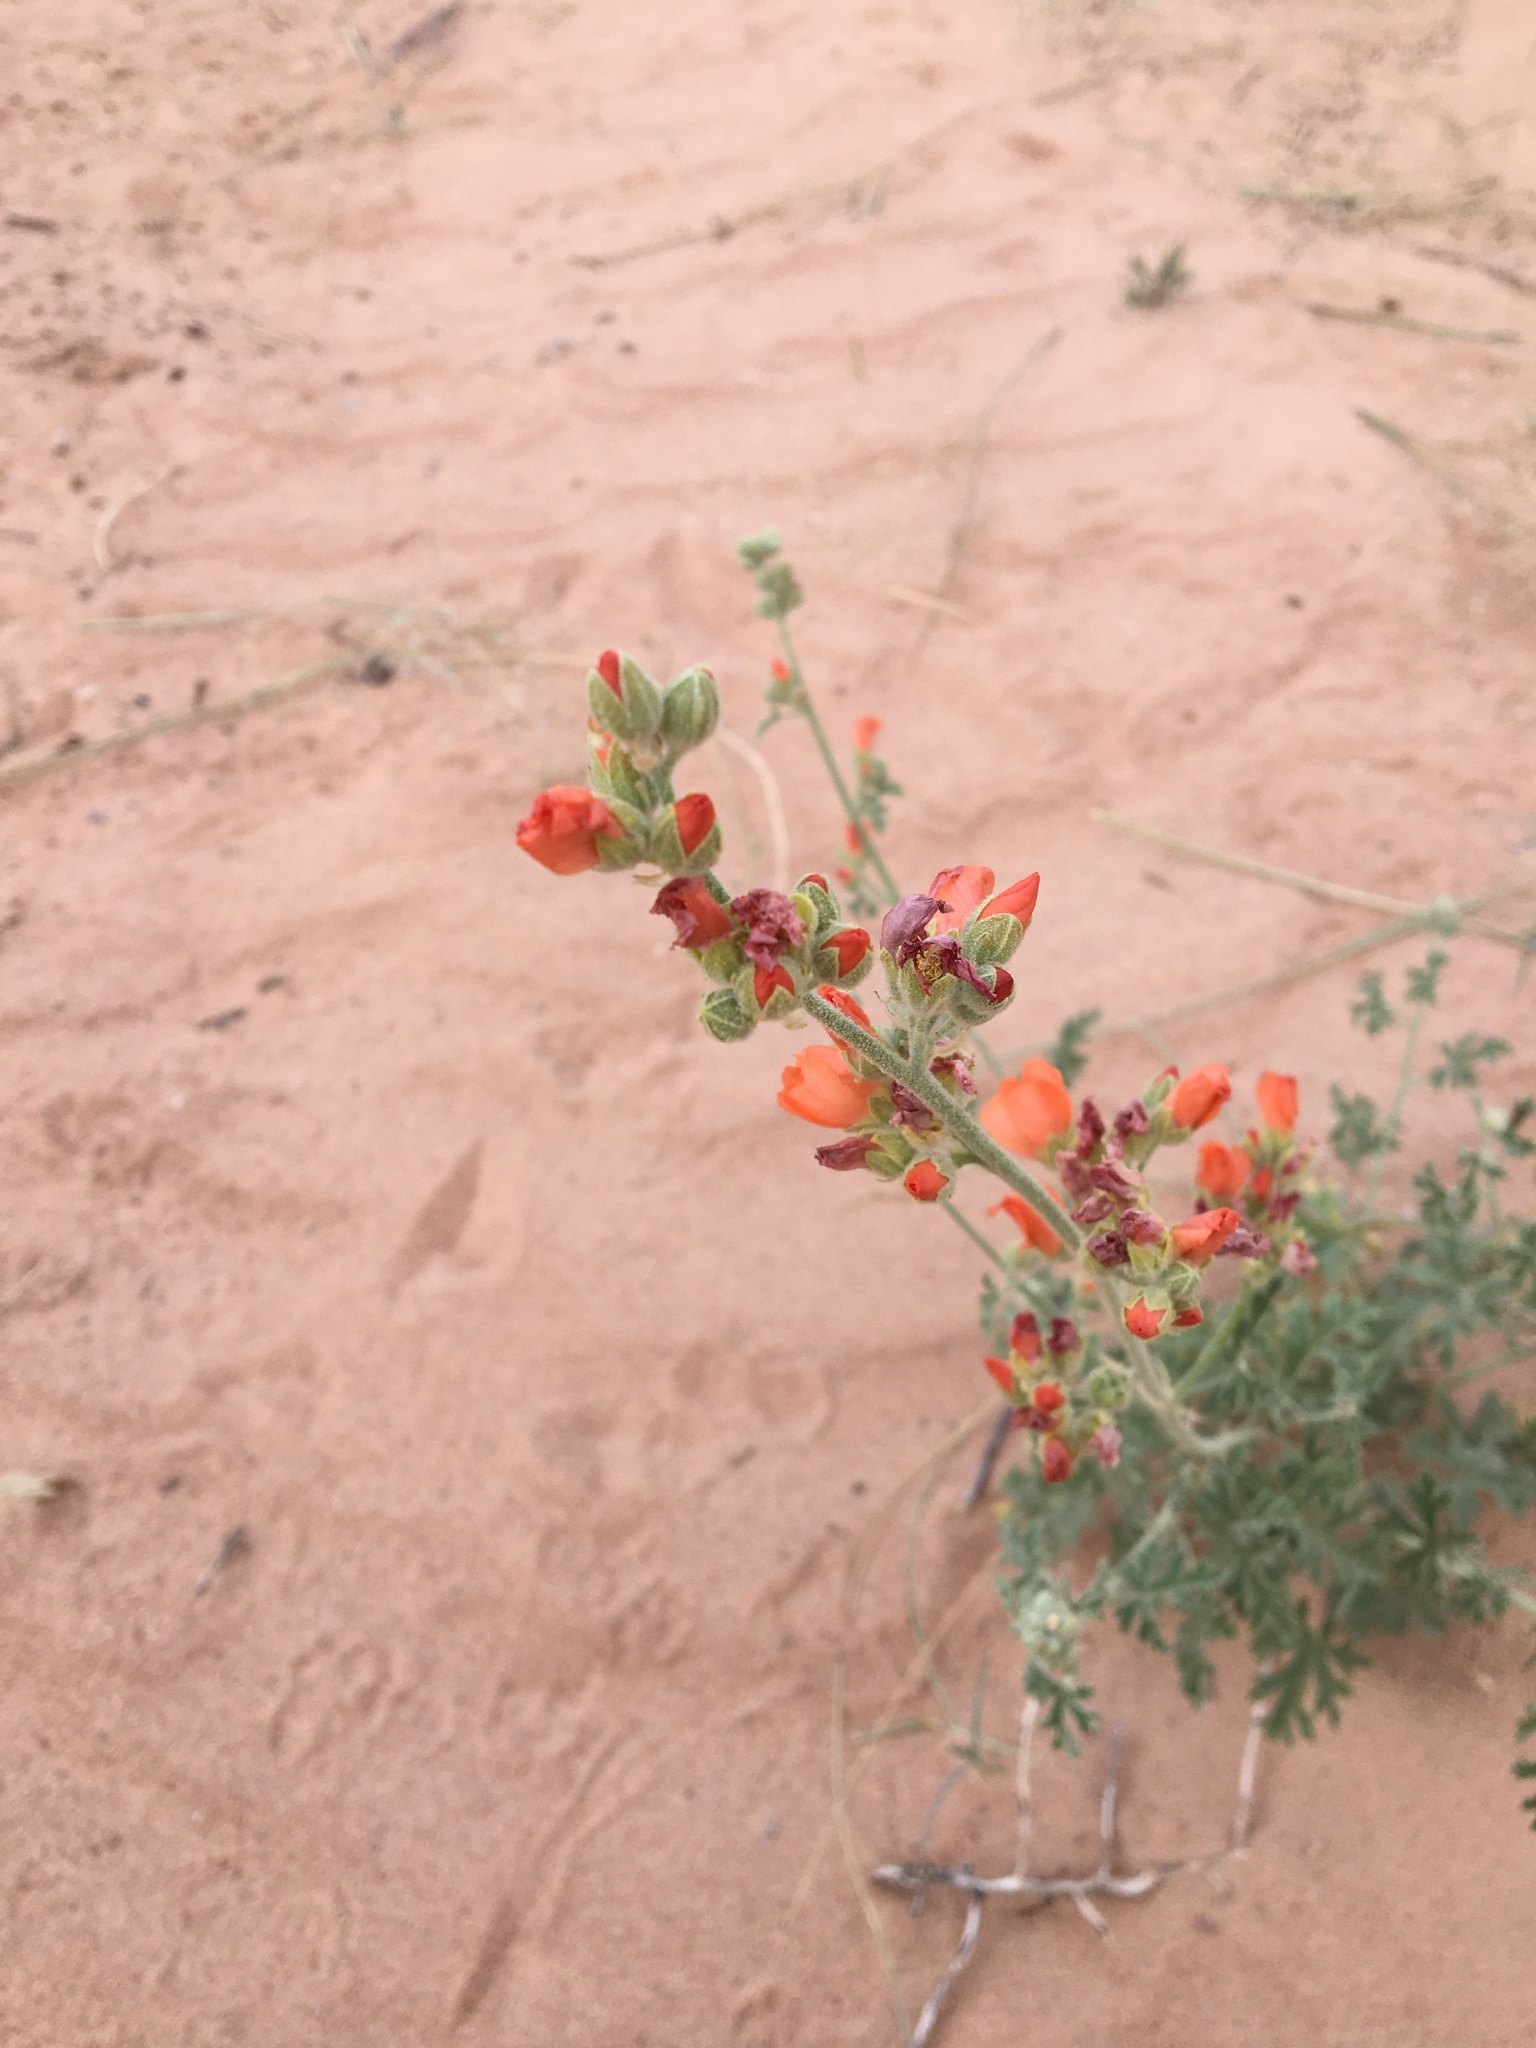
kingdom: Plantae
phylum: Tracheophyta
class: Magnoliopsida
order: Malvales
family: Malvaceae
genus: Sphaeralcea
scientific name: Sphaeralcea grossulariifolia
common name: Current-leaf globe-mallow
